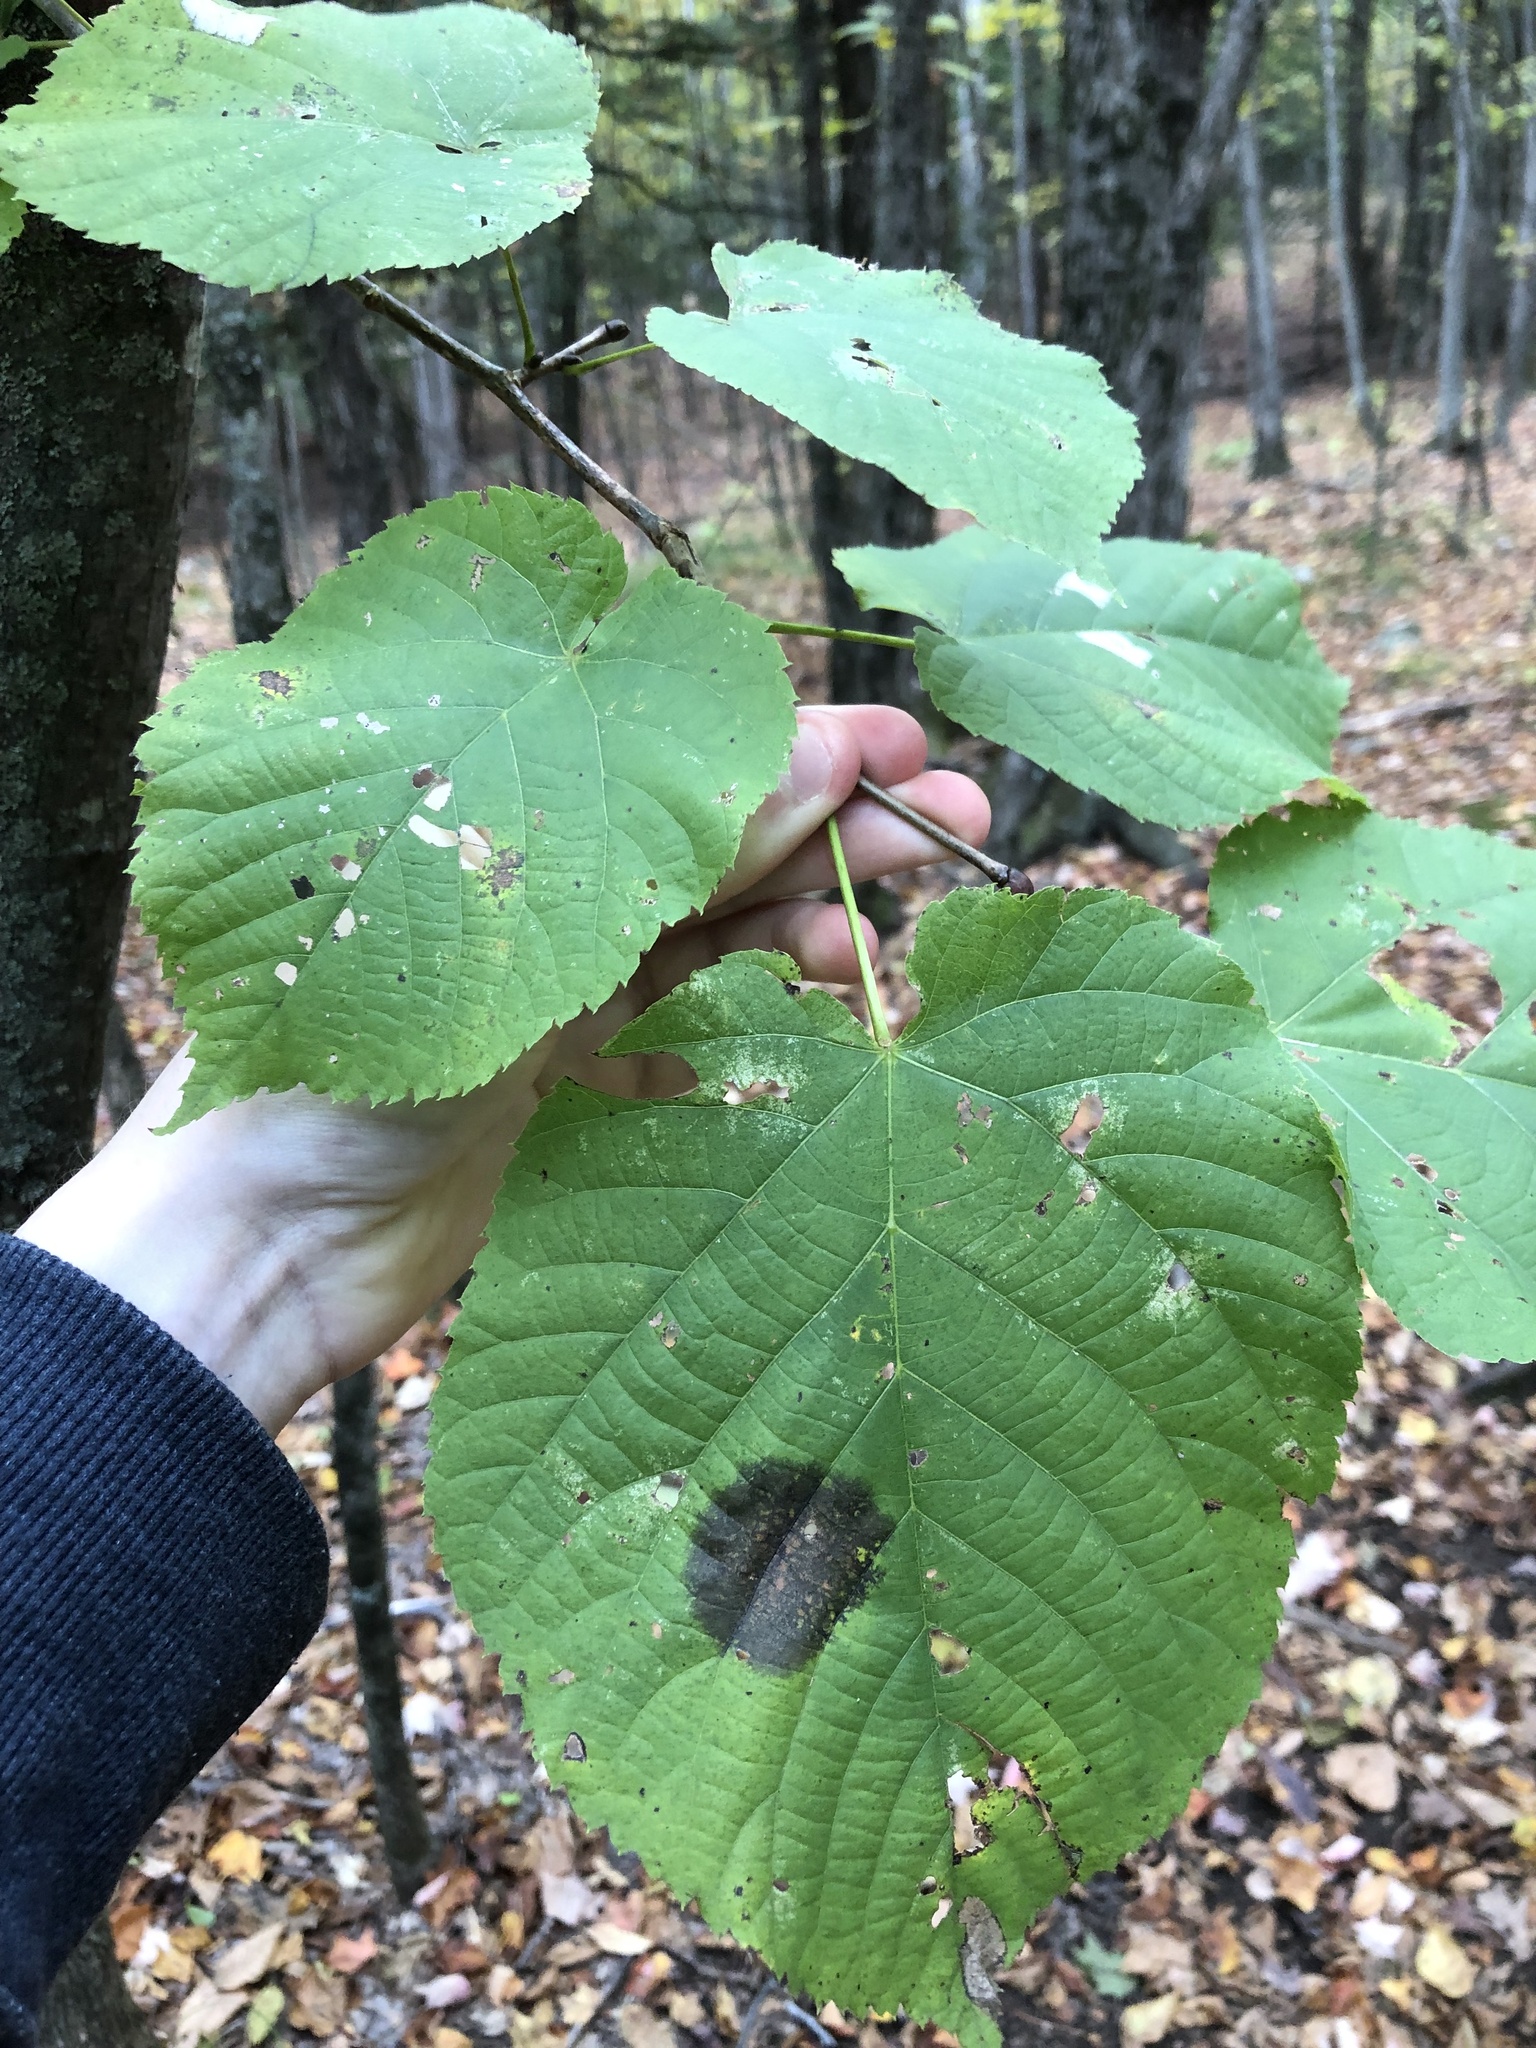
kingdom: Plantae
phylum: Tracheophyta
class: Magnoliopsida
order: Malvales
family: Malvaceae
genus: Tilia
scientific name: Tilia americana
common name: Basswood
